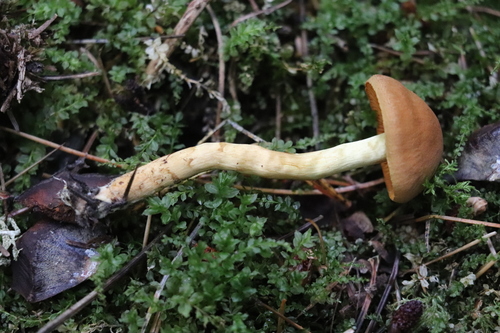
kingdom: Fungi
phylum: Basidiomycota
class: Agaricomycetes
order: Agaricales
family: Cortinariaceae
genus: Cortinarius
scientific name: Cortinarius cinnamomeus
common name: Cinnamon webcap
